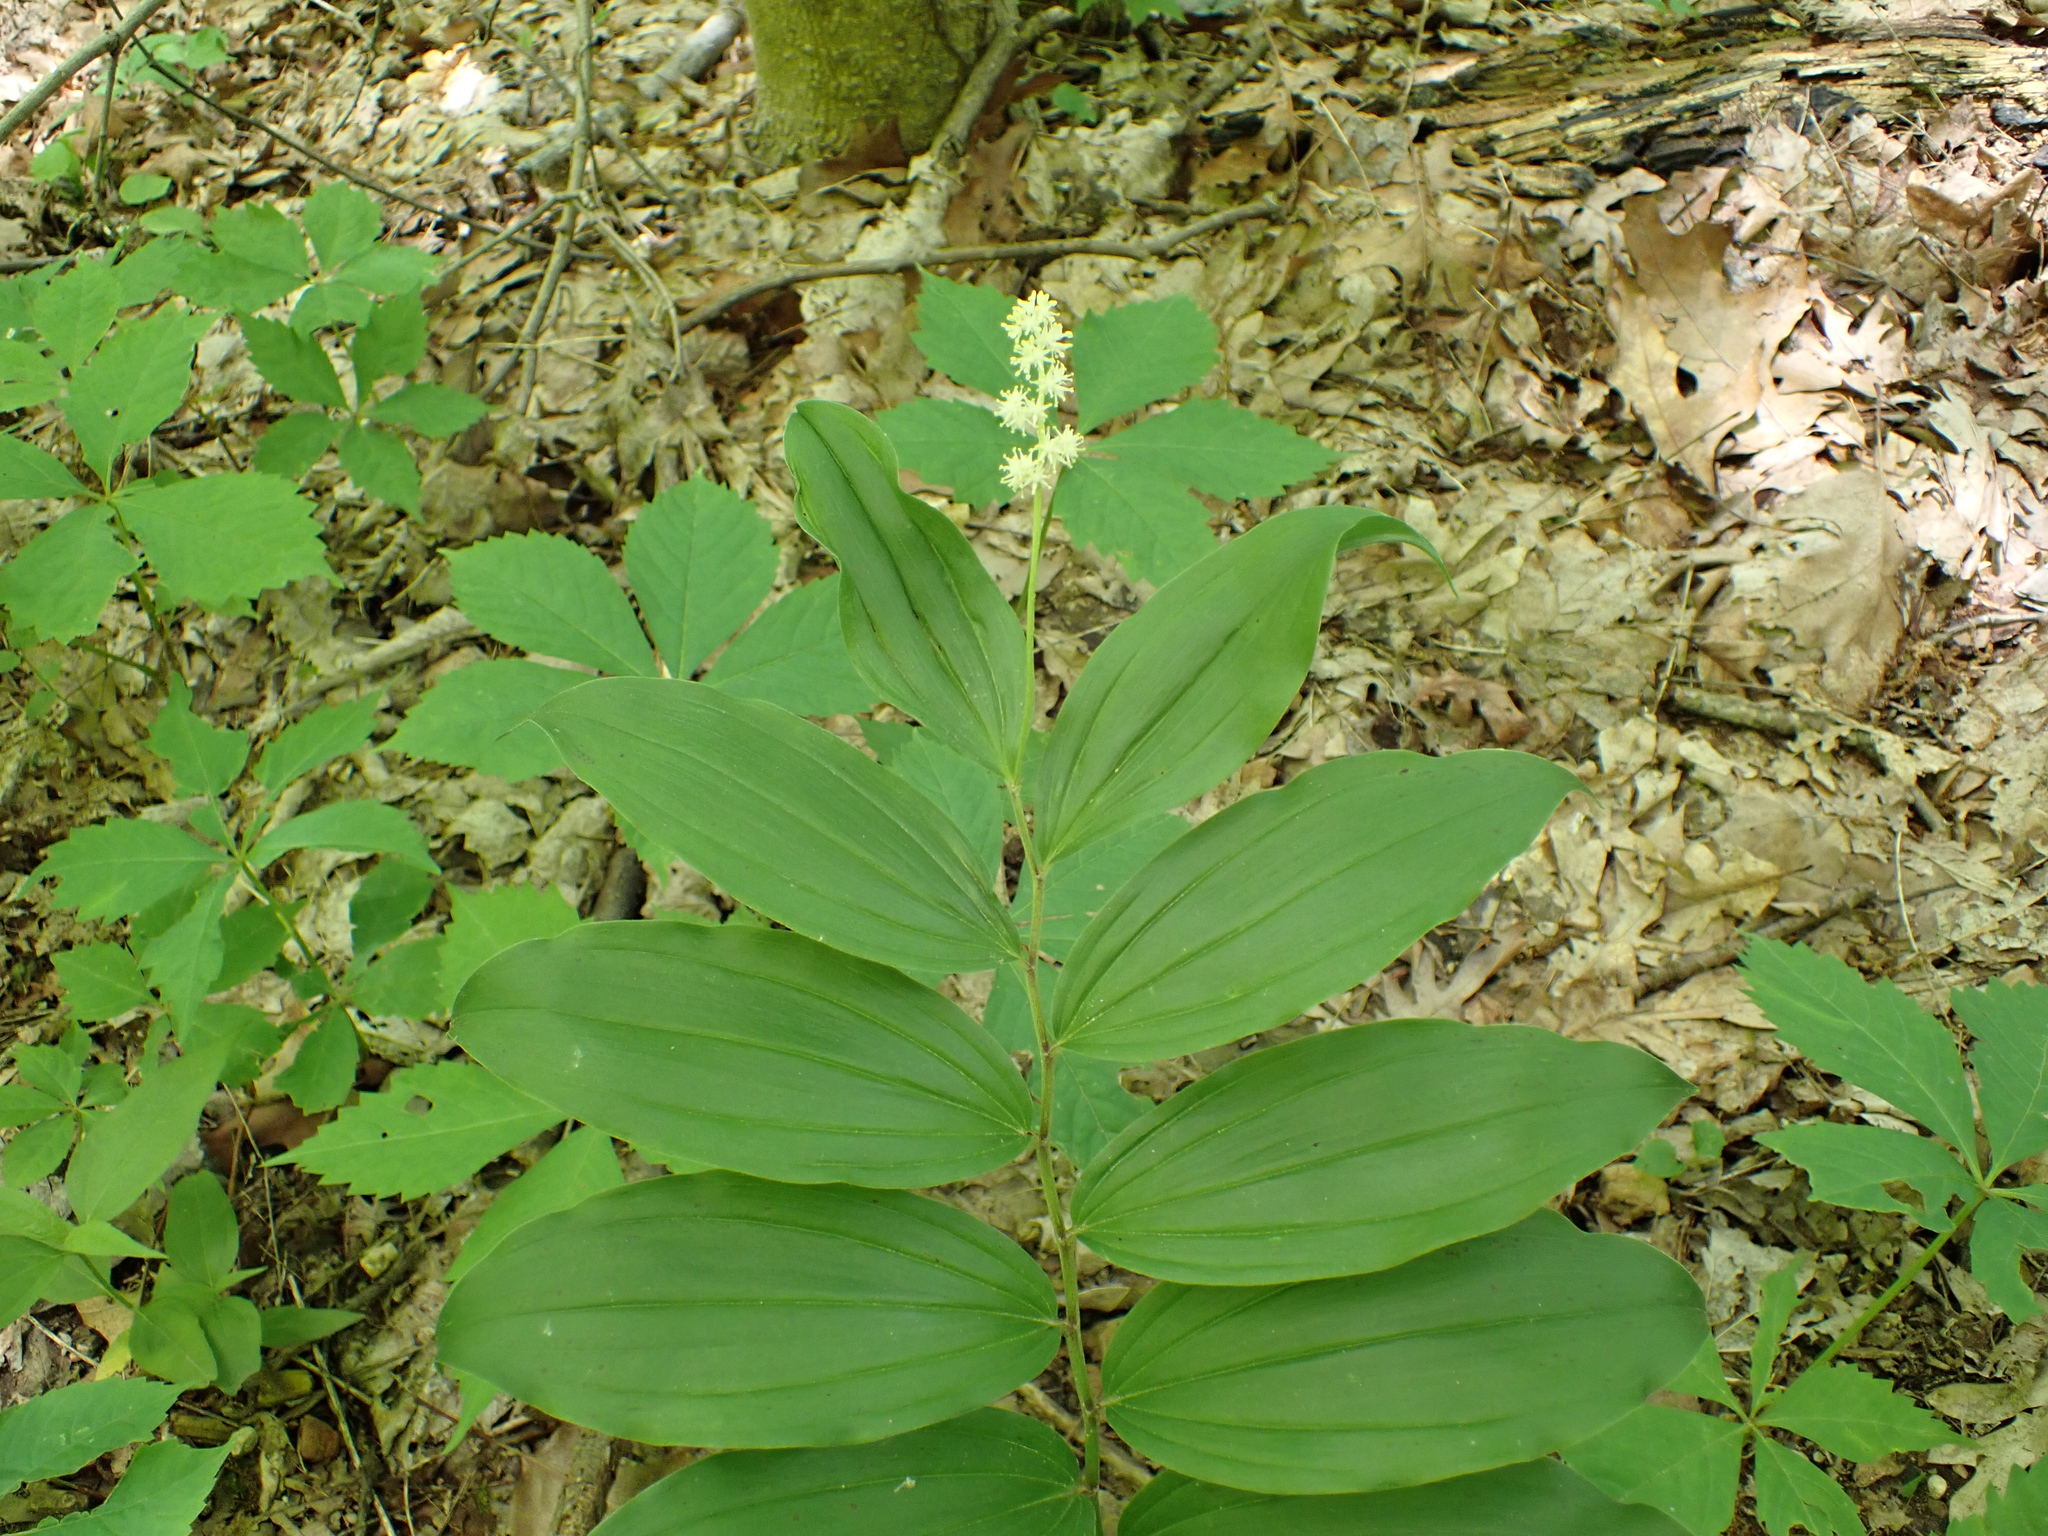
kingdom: Plantae
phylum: Tracheophyta
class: Liliopsida
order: Asparagales
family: Asparagaceae
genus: Maianthemum
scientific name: Maianthemum racemosum
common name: False spikenard
